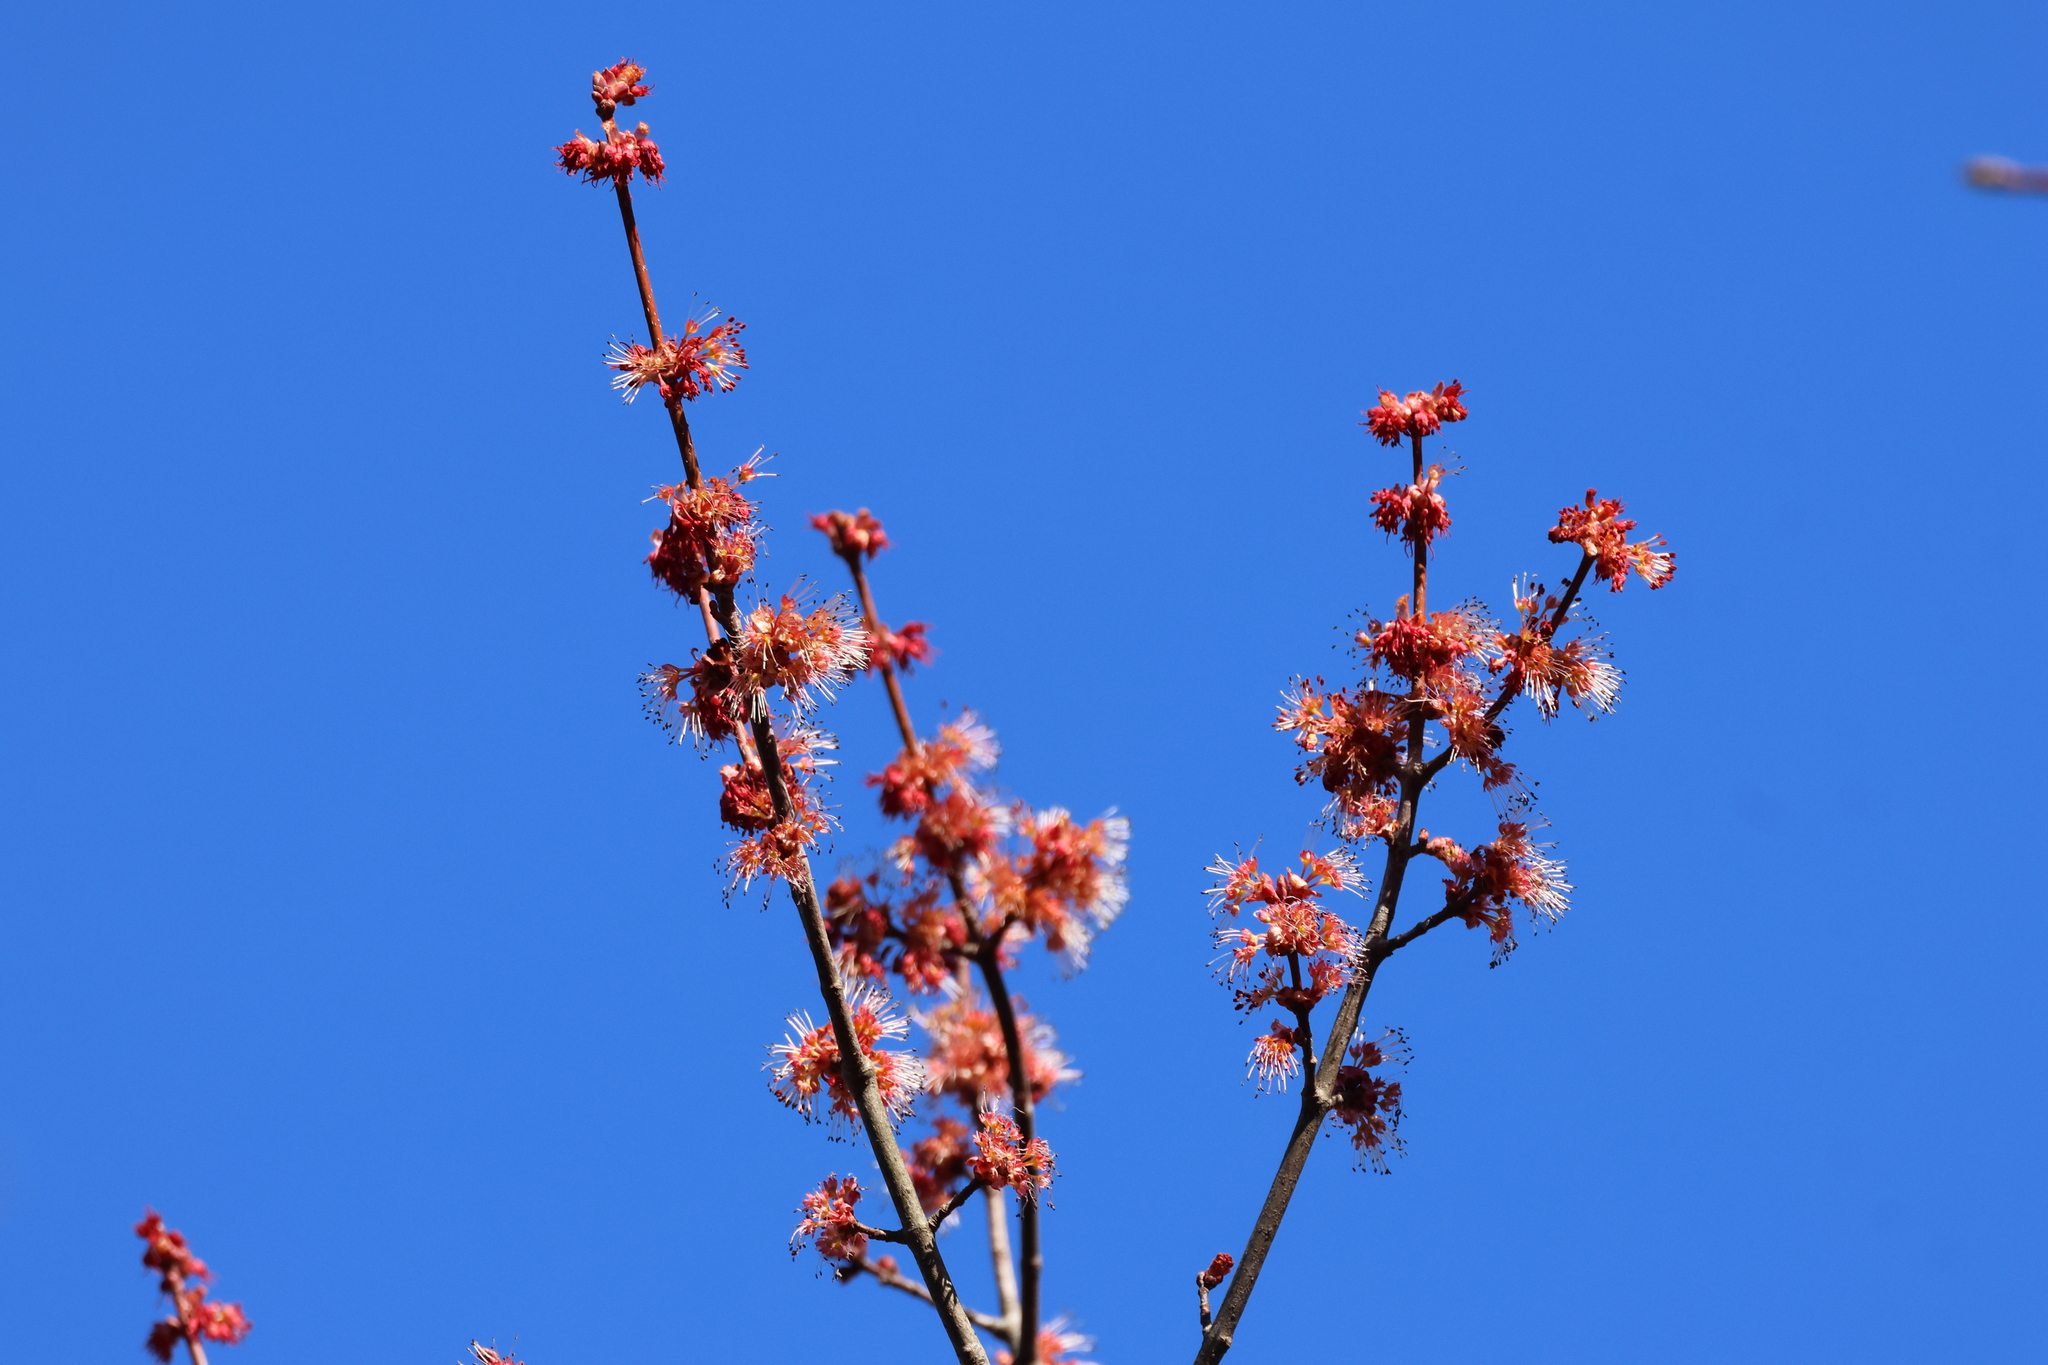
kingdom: Plantae
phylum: Tracheophyta
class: Magnoliopsida
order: Sapindales
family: Sapindaceae
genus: Acer
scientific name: Acer rubrum
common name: Red maple
